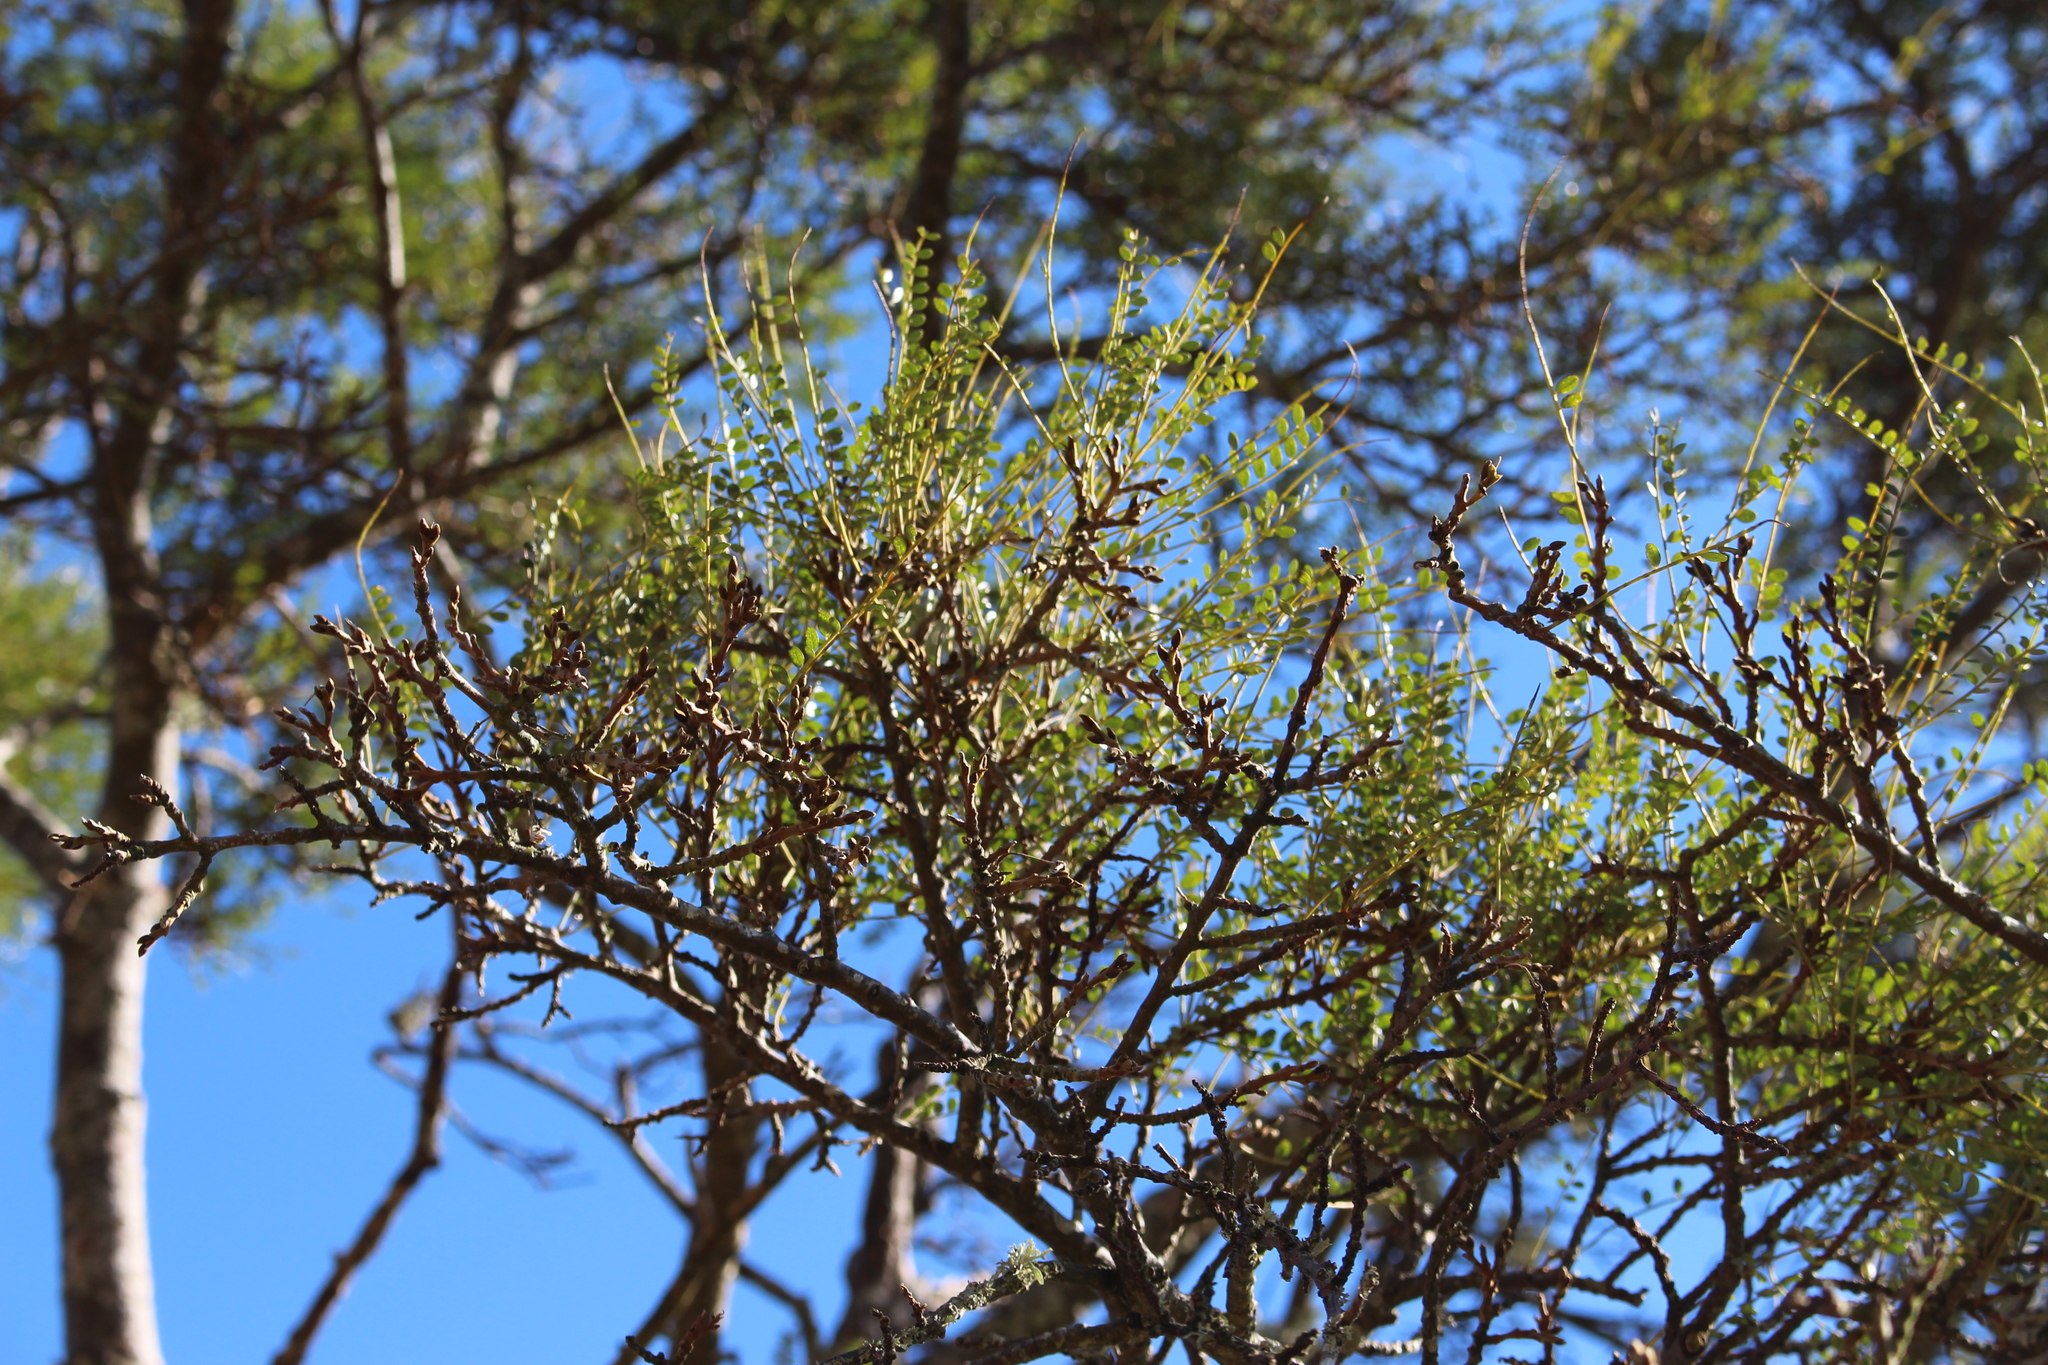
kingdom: Plantae
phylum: Tracheophyta
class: Magnoliopsida
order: Fabales
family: Fabaceae
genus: Sophora
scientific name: Sophora microphylla
